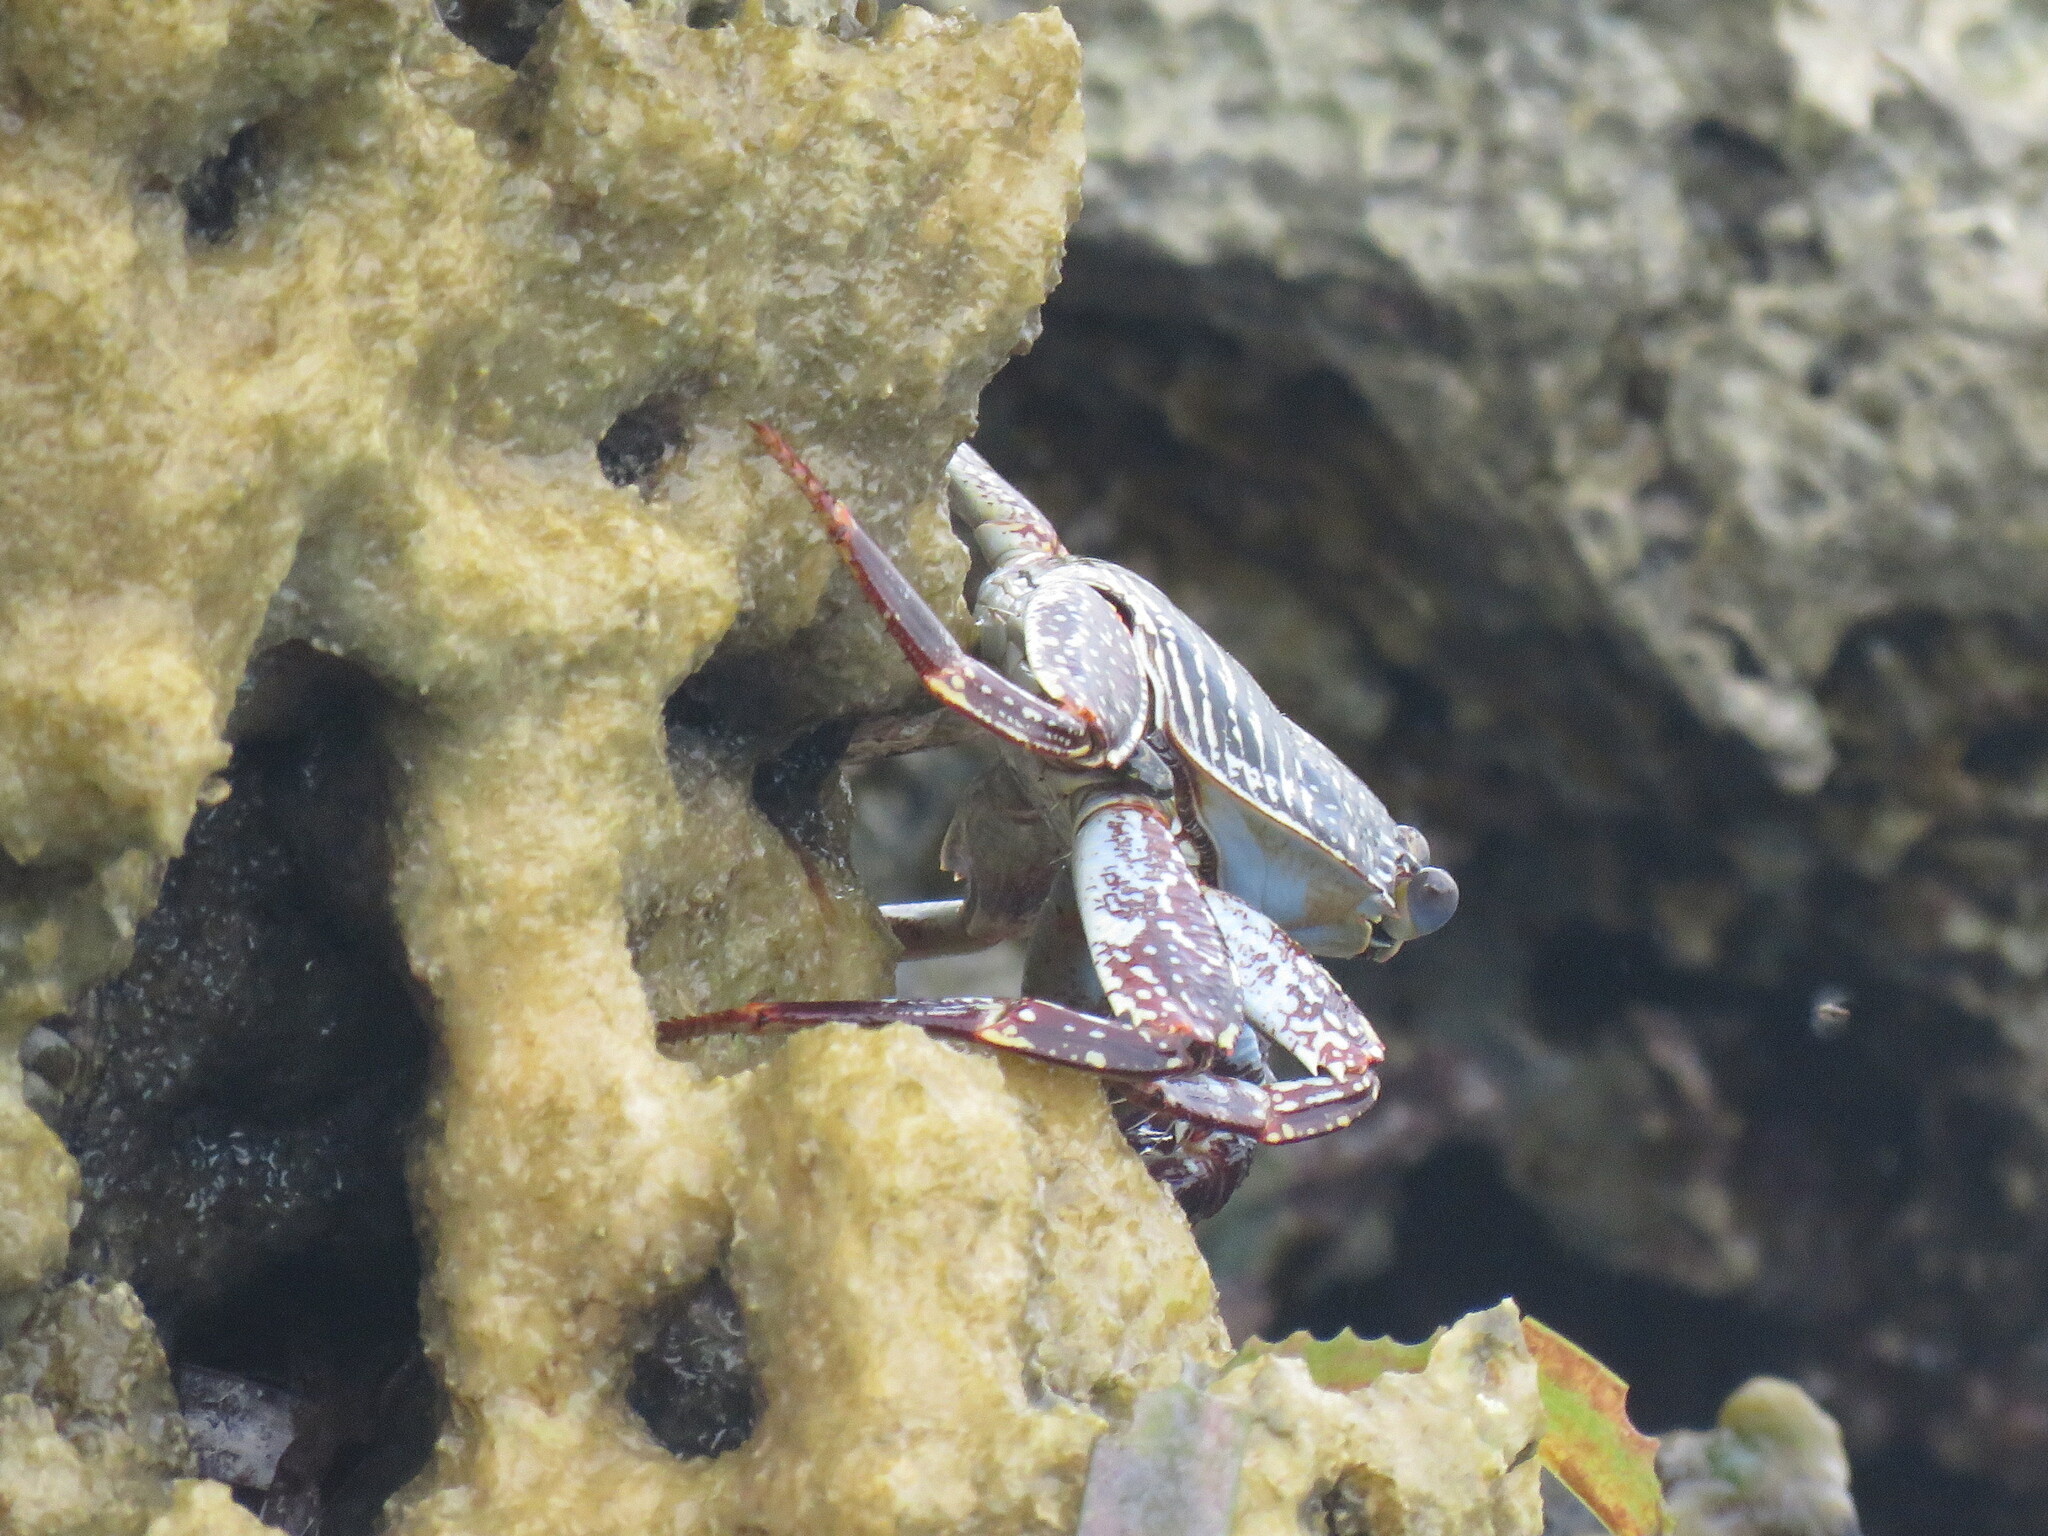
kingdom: Animalia
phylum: Arthropoda
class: Malacostraca
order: Decapoda
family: Grapsidae
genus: Grapsus
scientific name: Grapsus grapsus
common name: Sally lightfoot
